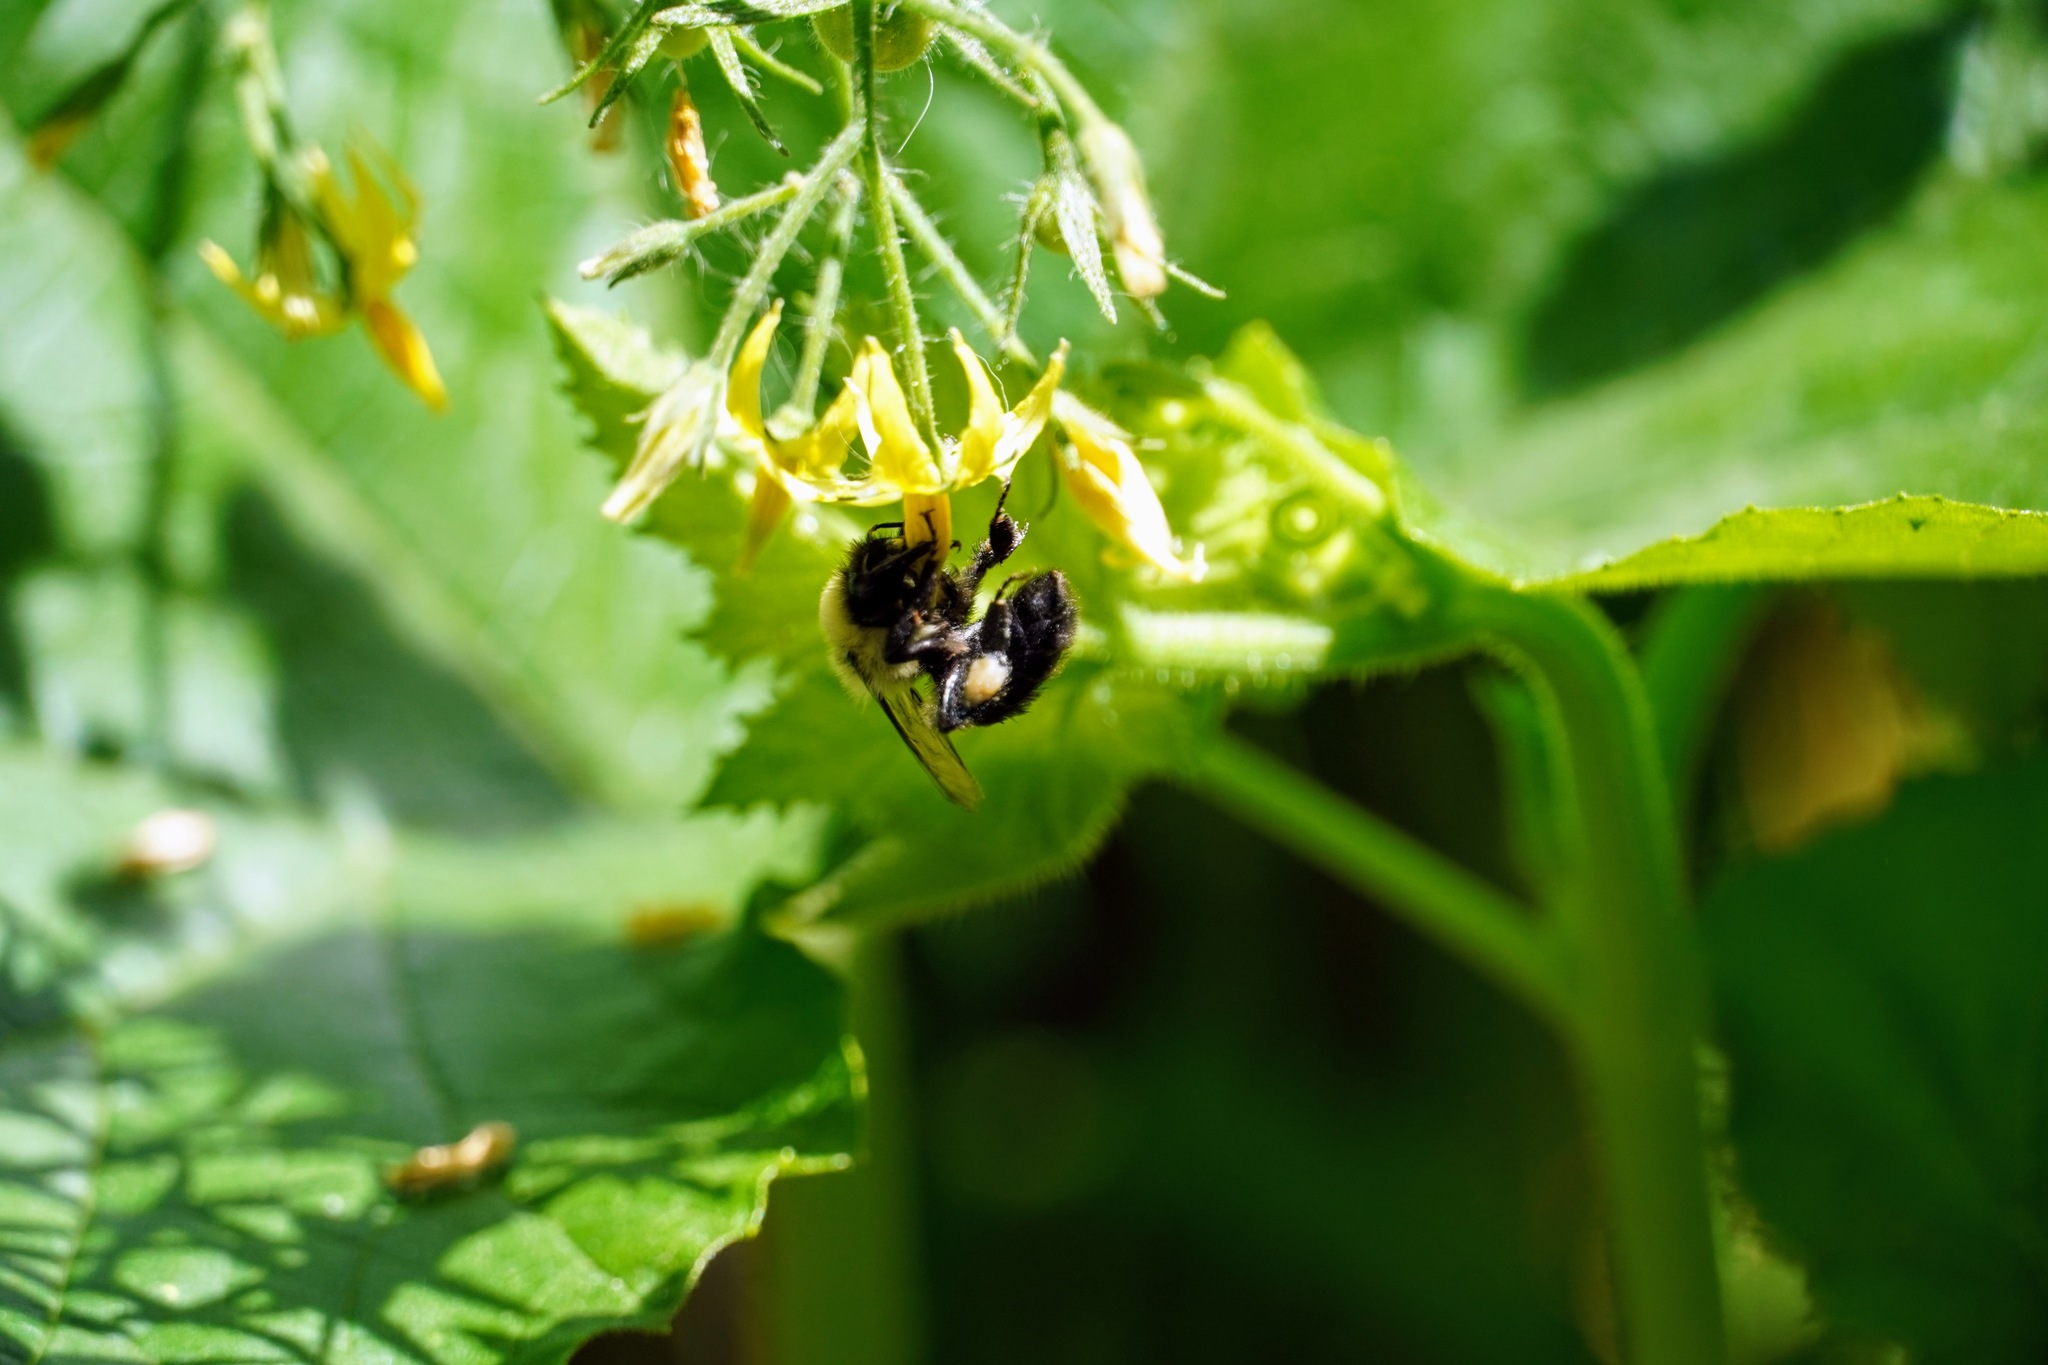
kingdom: Animalia
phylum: Arthropoda
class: Insecta
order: Hymenoptera
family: Apidae
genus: Bombus
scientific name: Bombus impatiens
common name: Common eastern bumble bee
